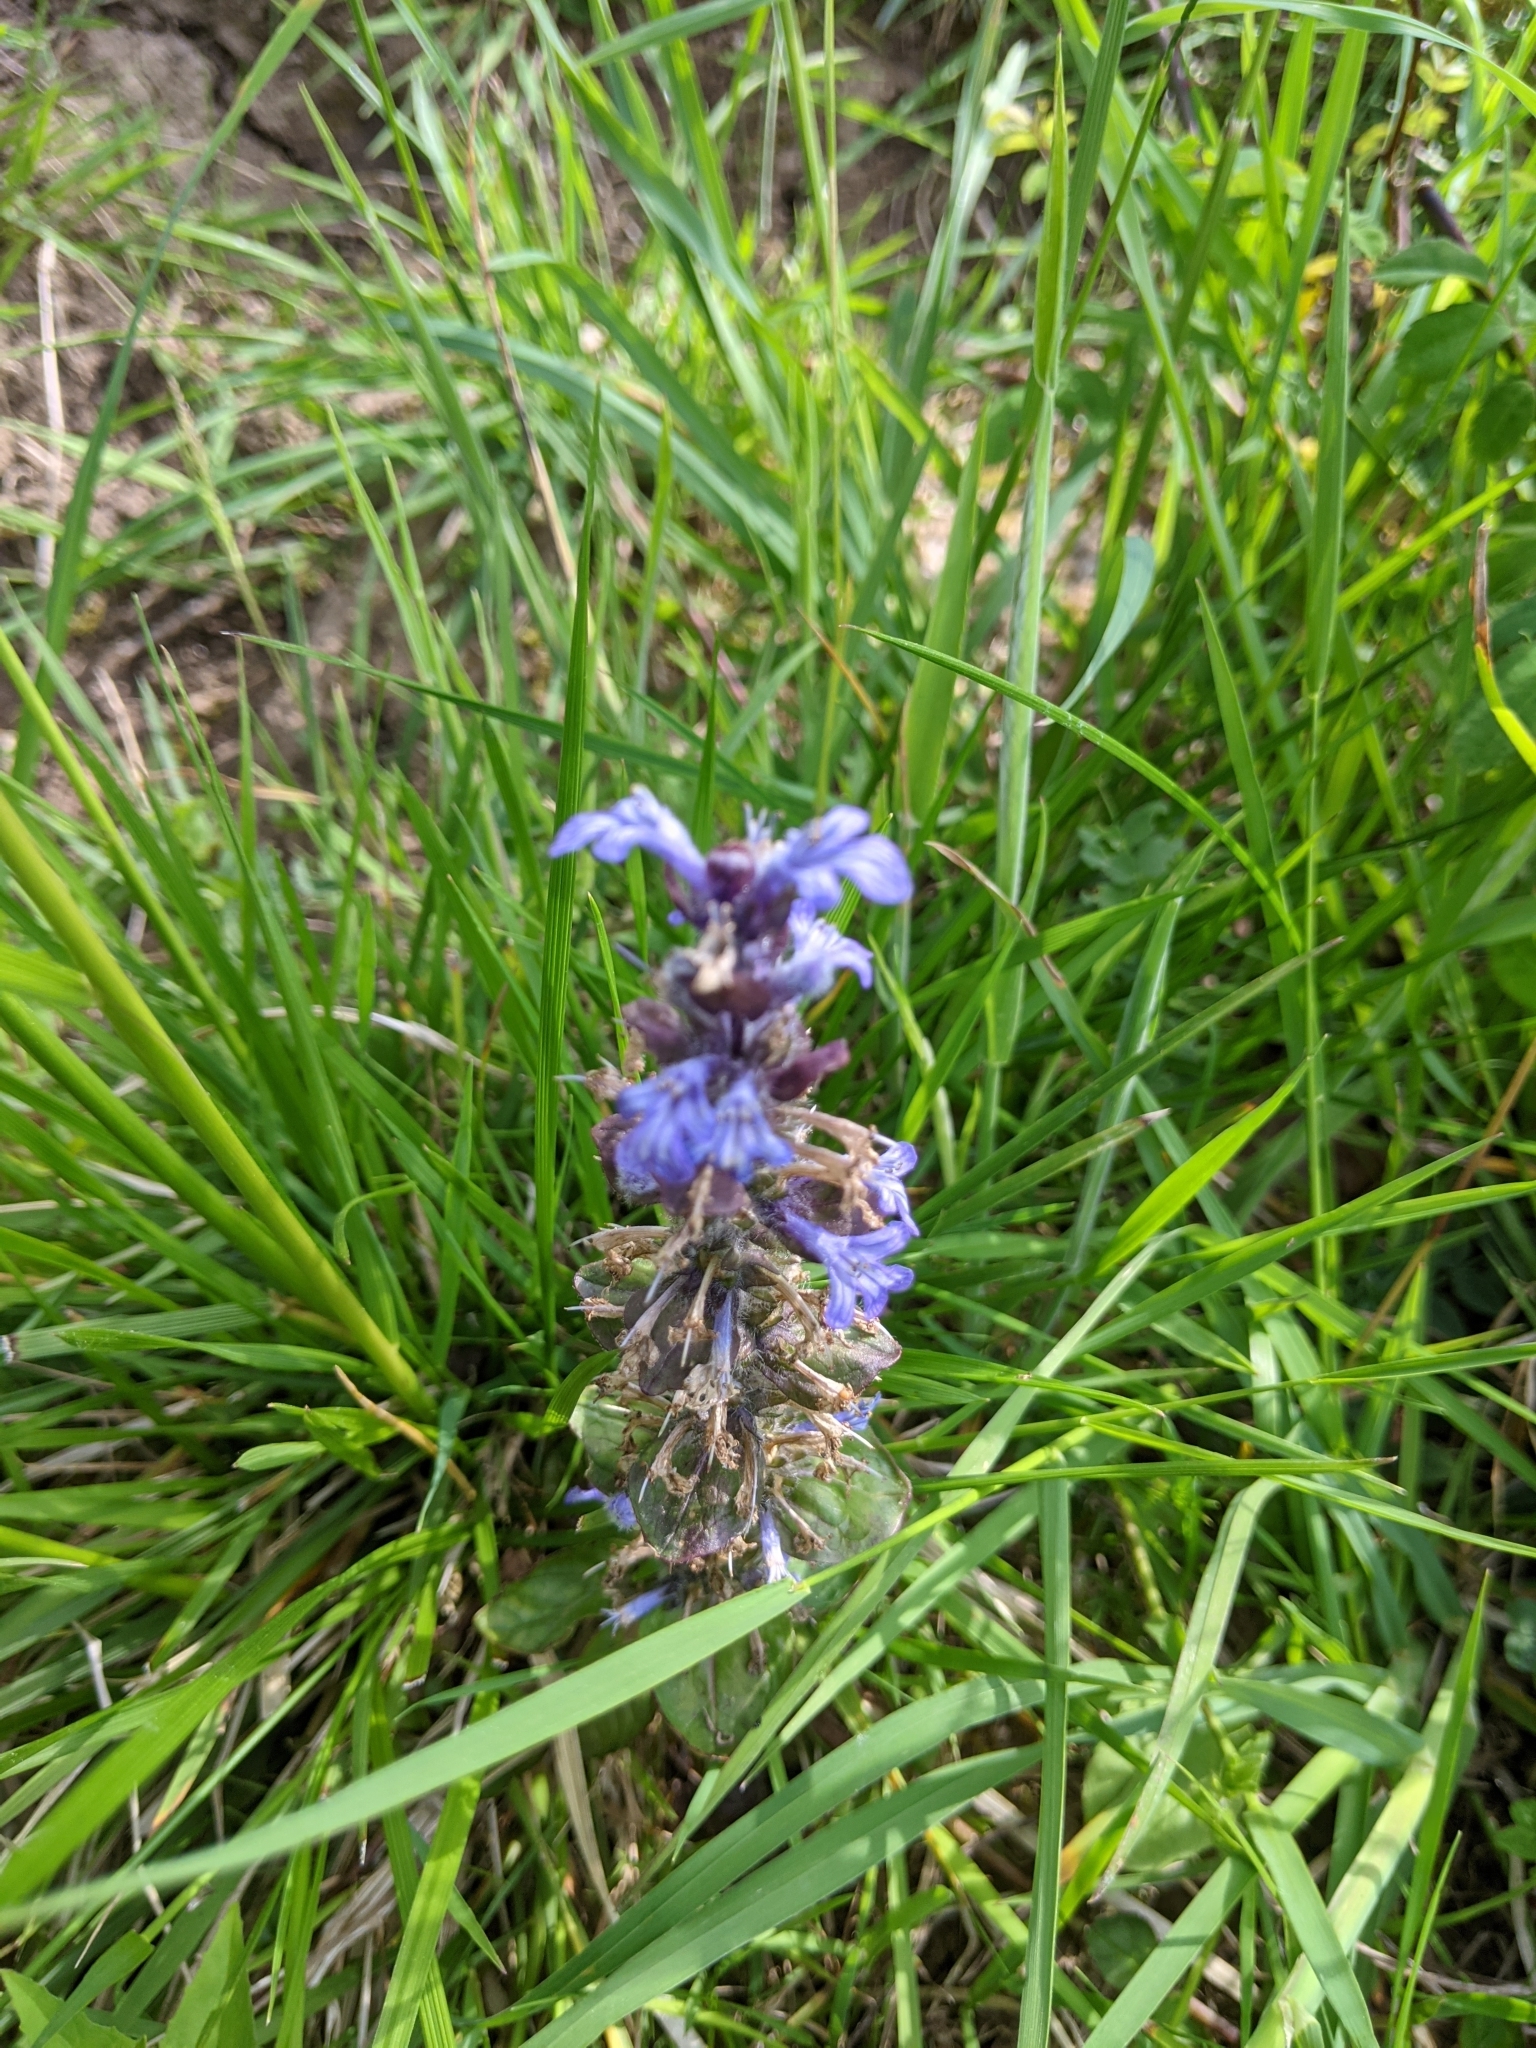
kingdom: Plantae
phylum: Tracheophyta
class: Magnoliopsida
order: Lamiales
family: Lamiaceae
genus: Ajuga
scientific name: Ajuga reptans
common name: Bugle
